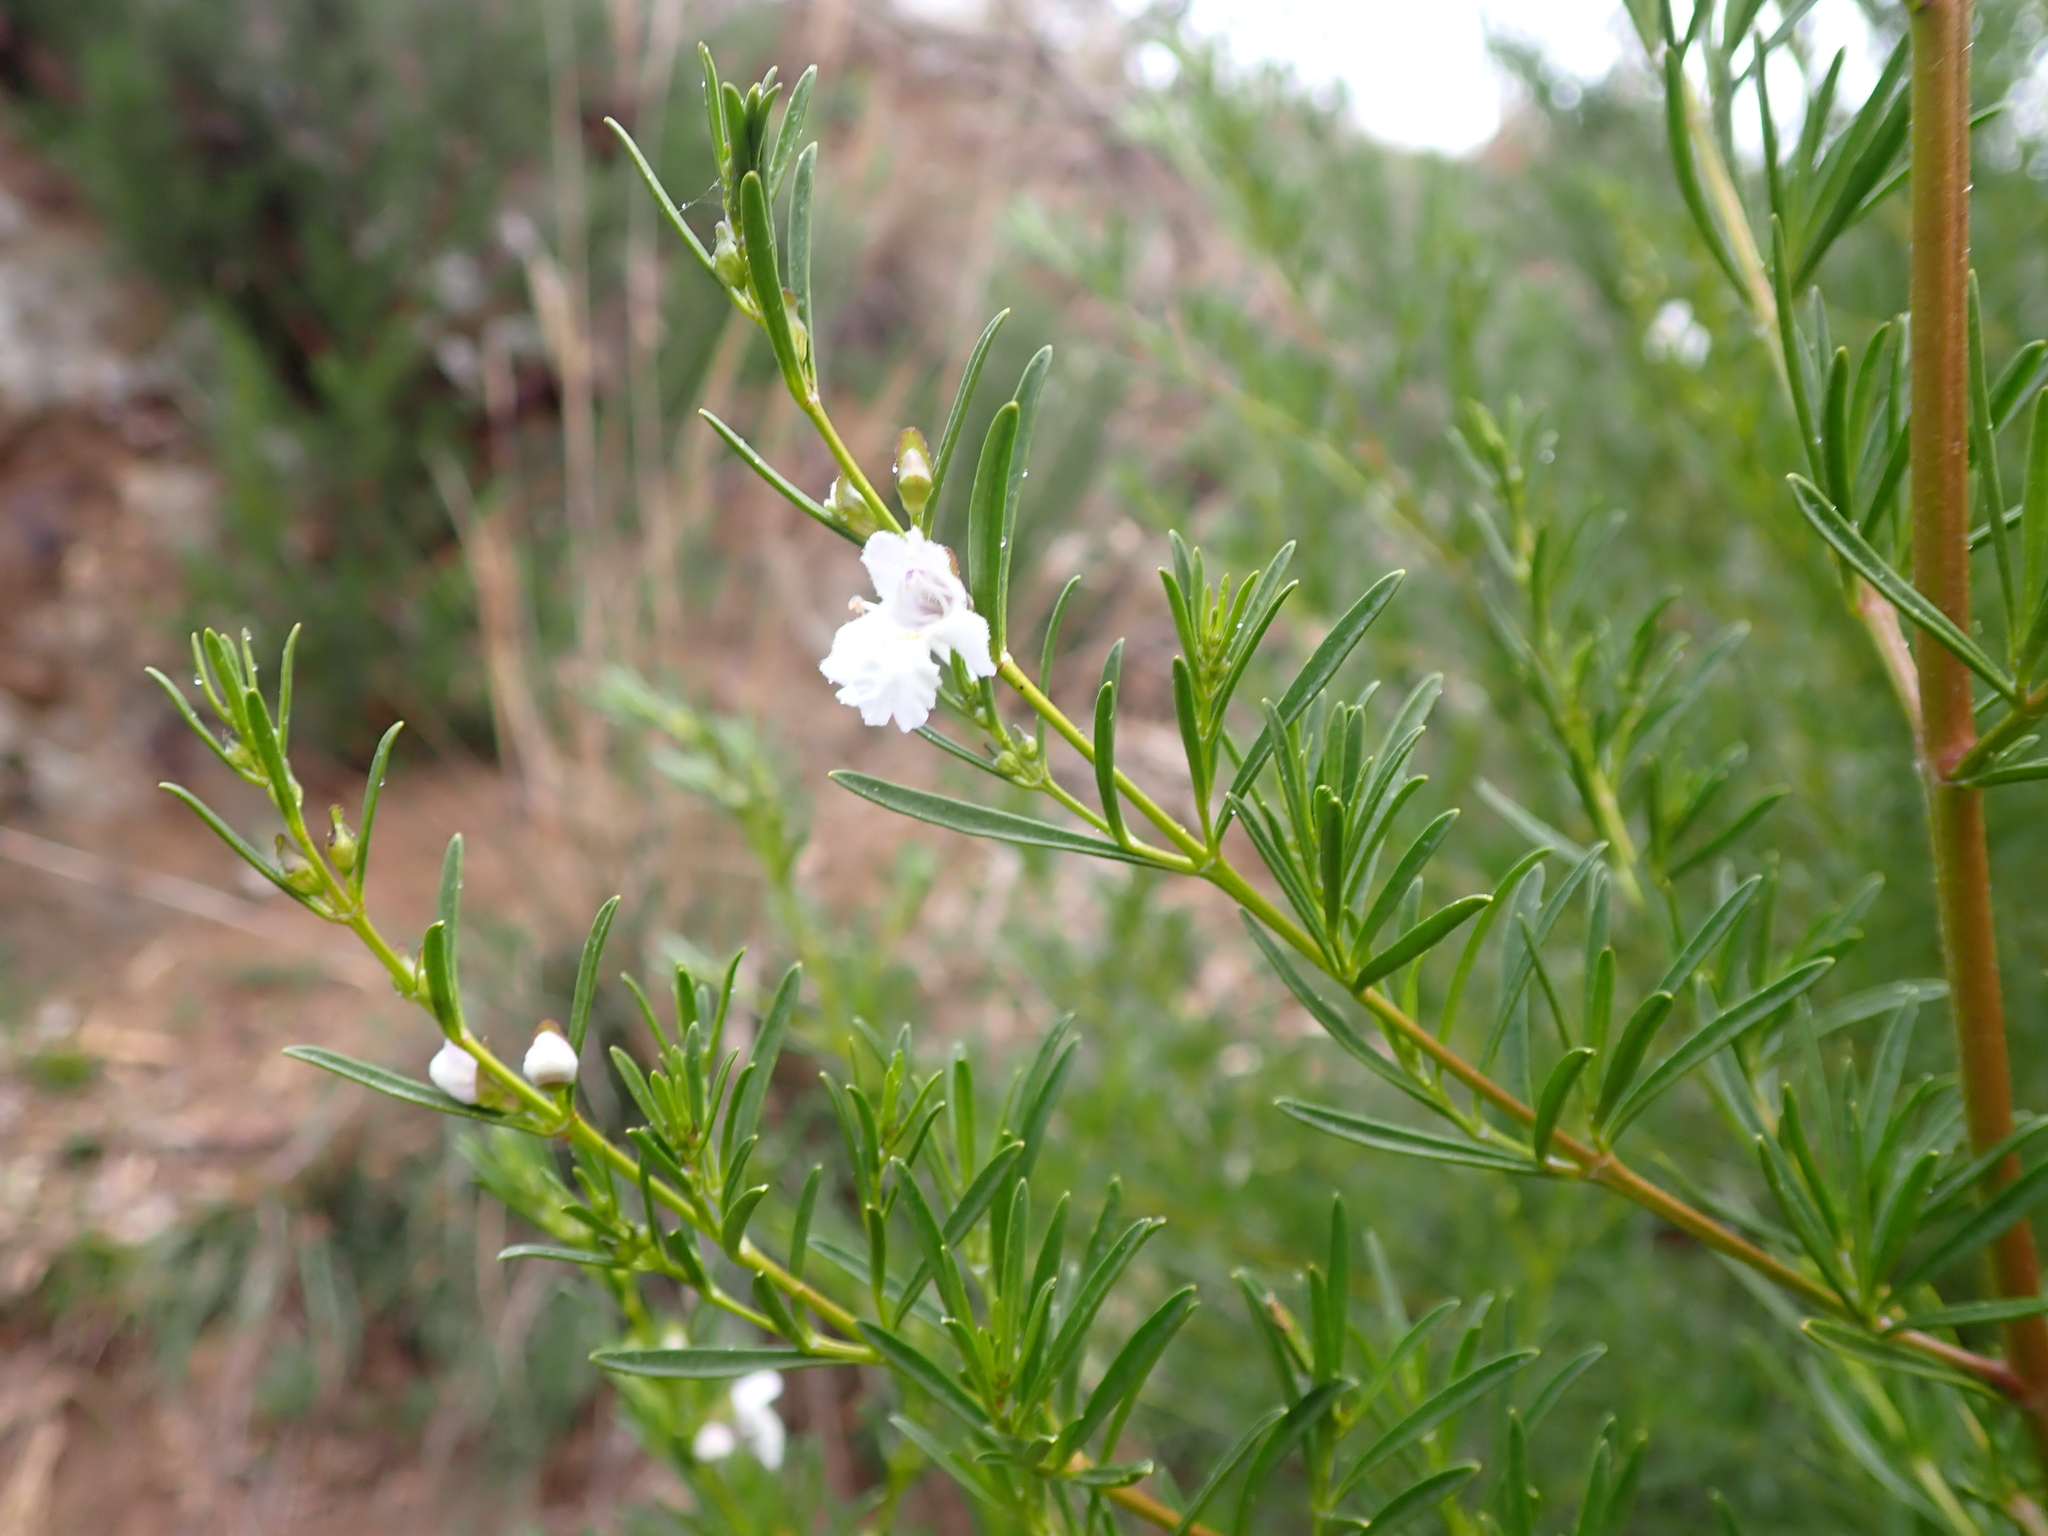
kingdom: Plantae
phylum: Tracheophyta
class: Magnoliopsida
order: Lamiales
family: Lamiaceae
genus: Prostanthera
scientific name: Prostanthera nivea
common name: Snowy mintbush
